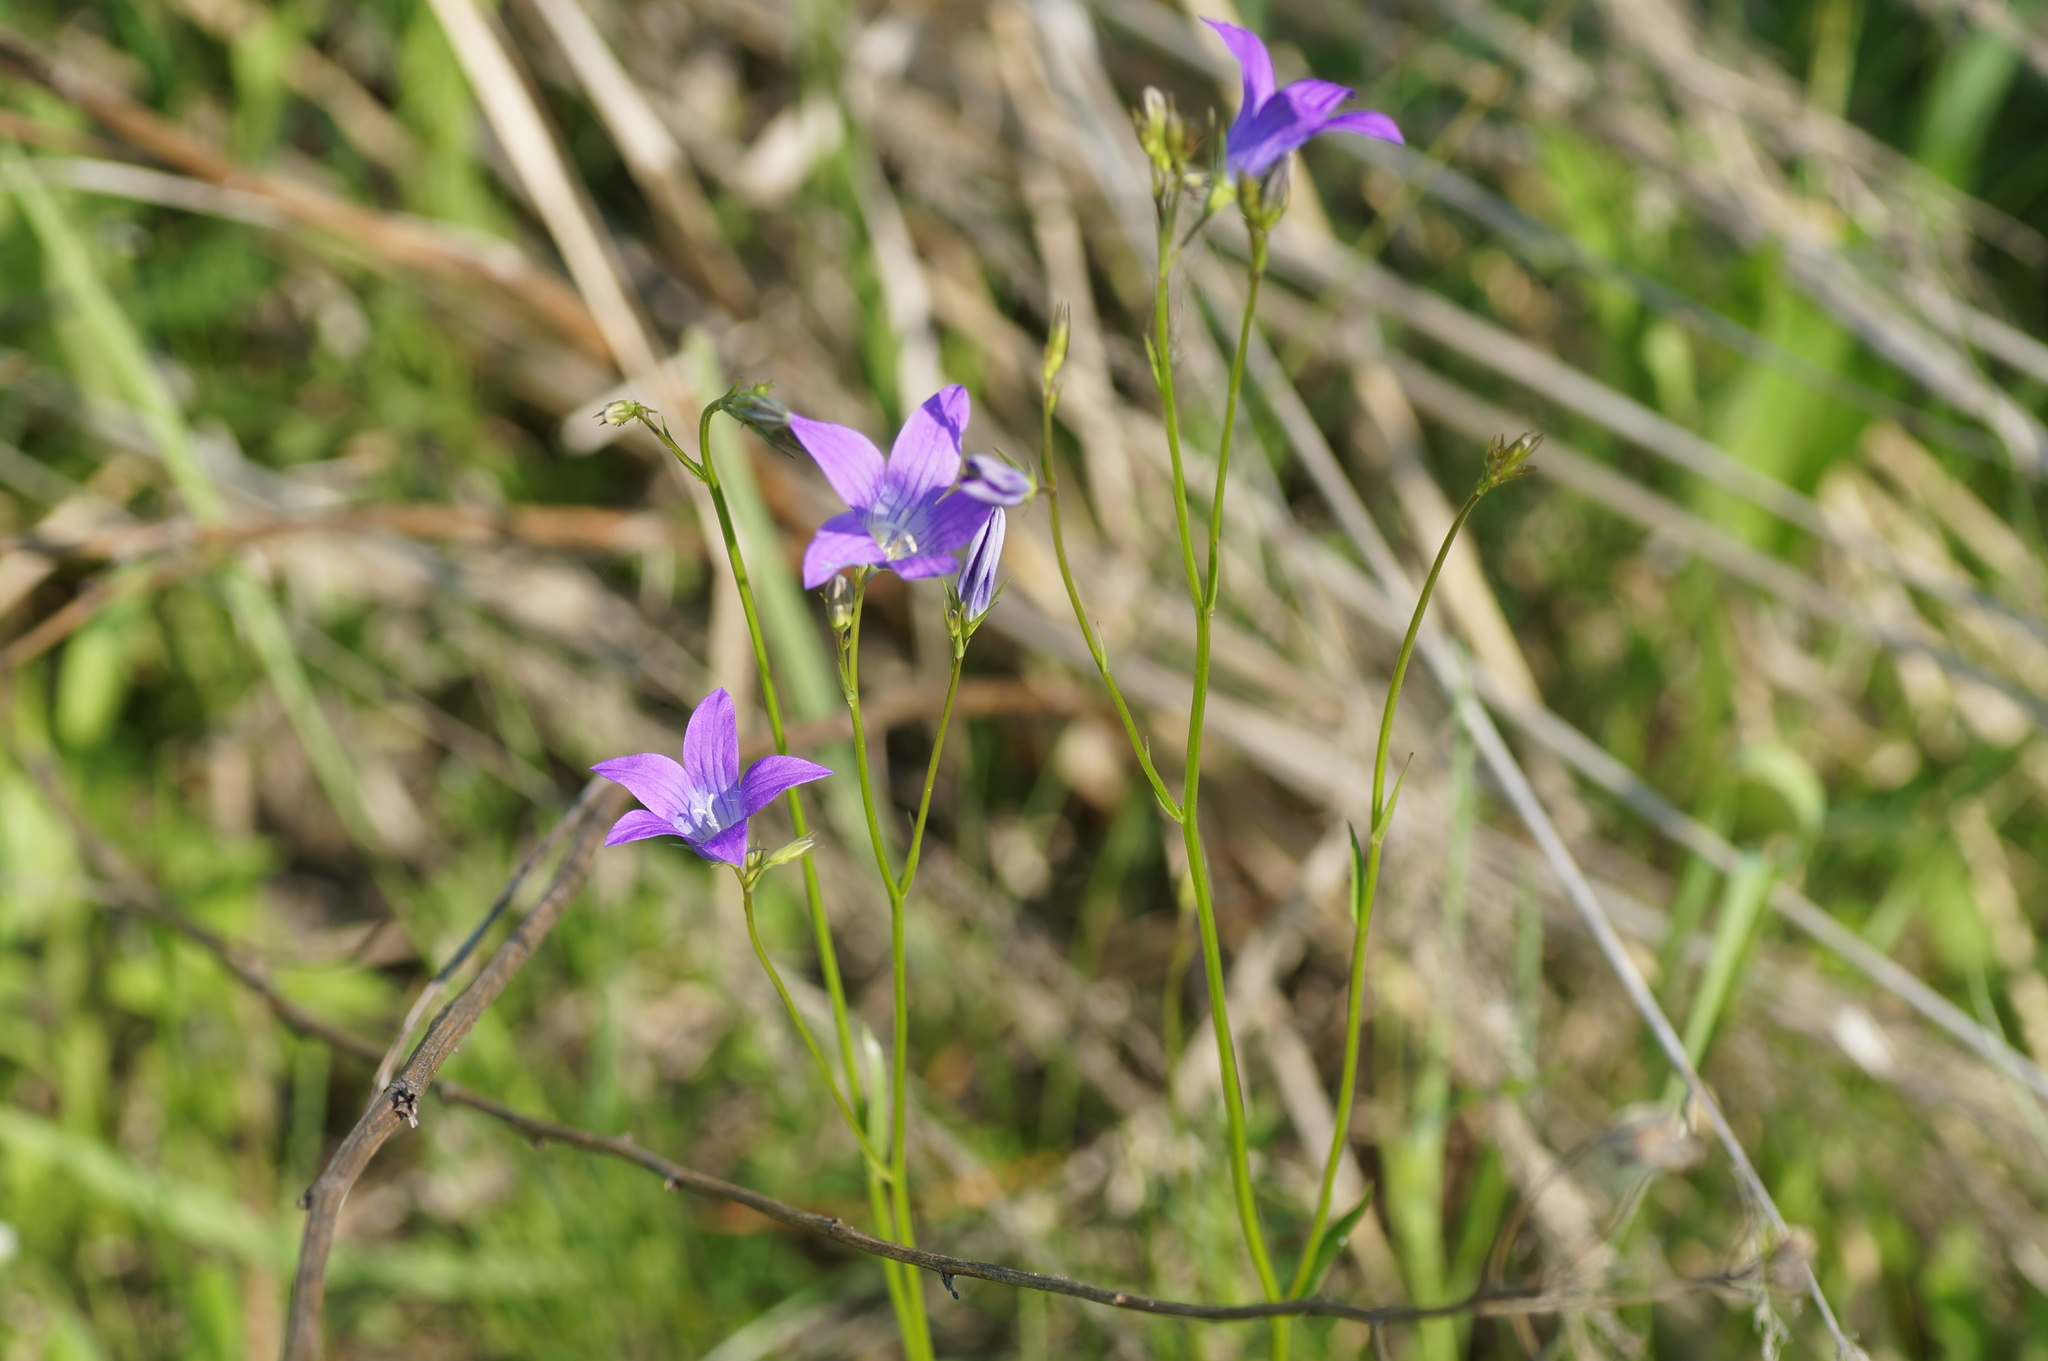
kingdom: Plantae
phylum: Tracheophyta
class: Magnoliopsida
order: Asterales
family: Campanulaceae
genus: Campanula
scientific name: Campanula patula
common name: Spreading bellflower
